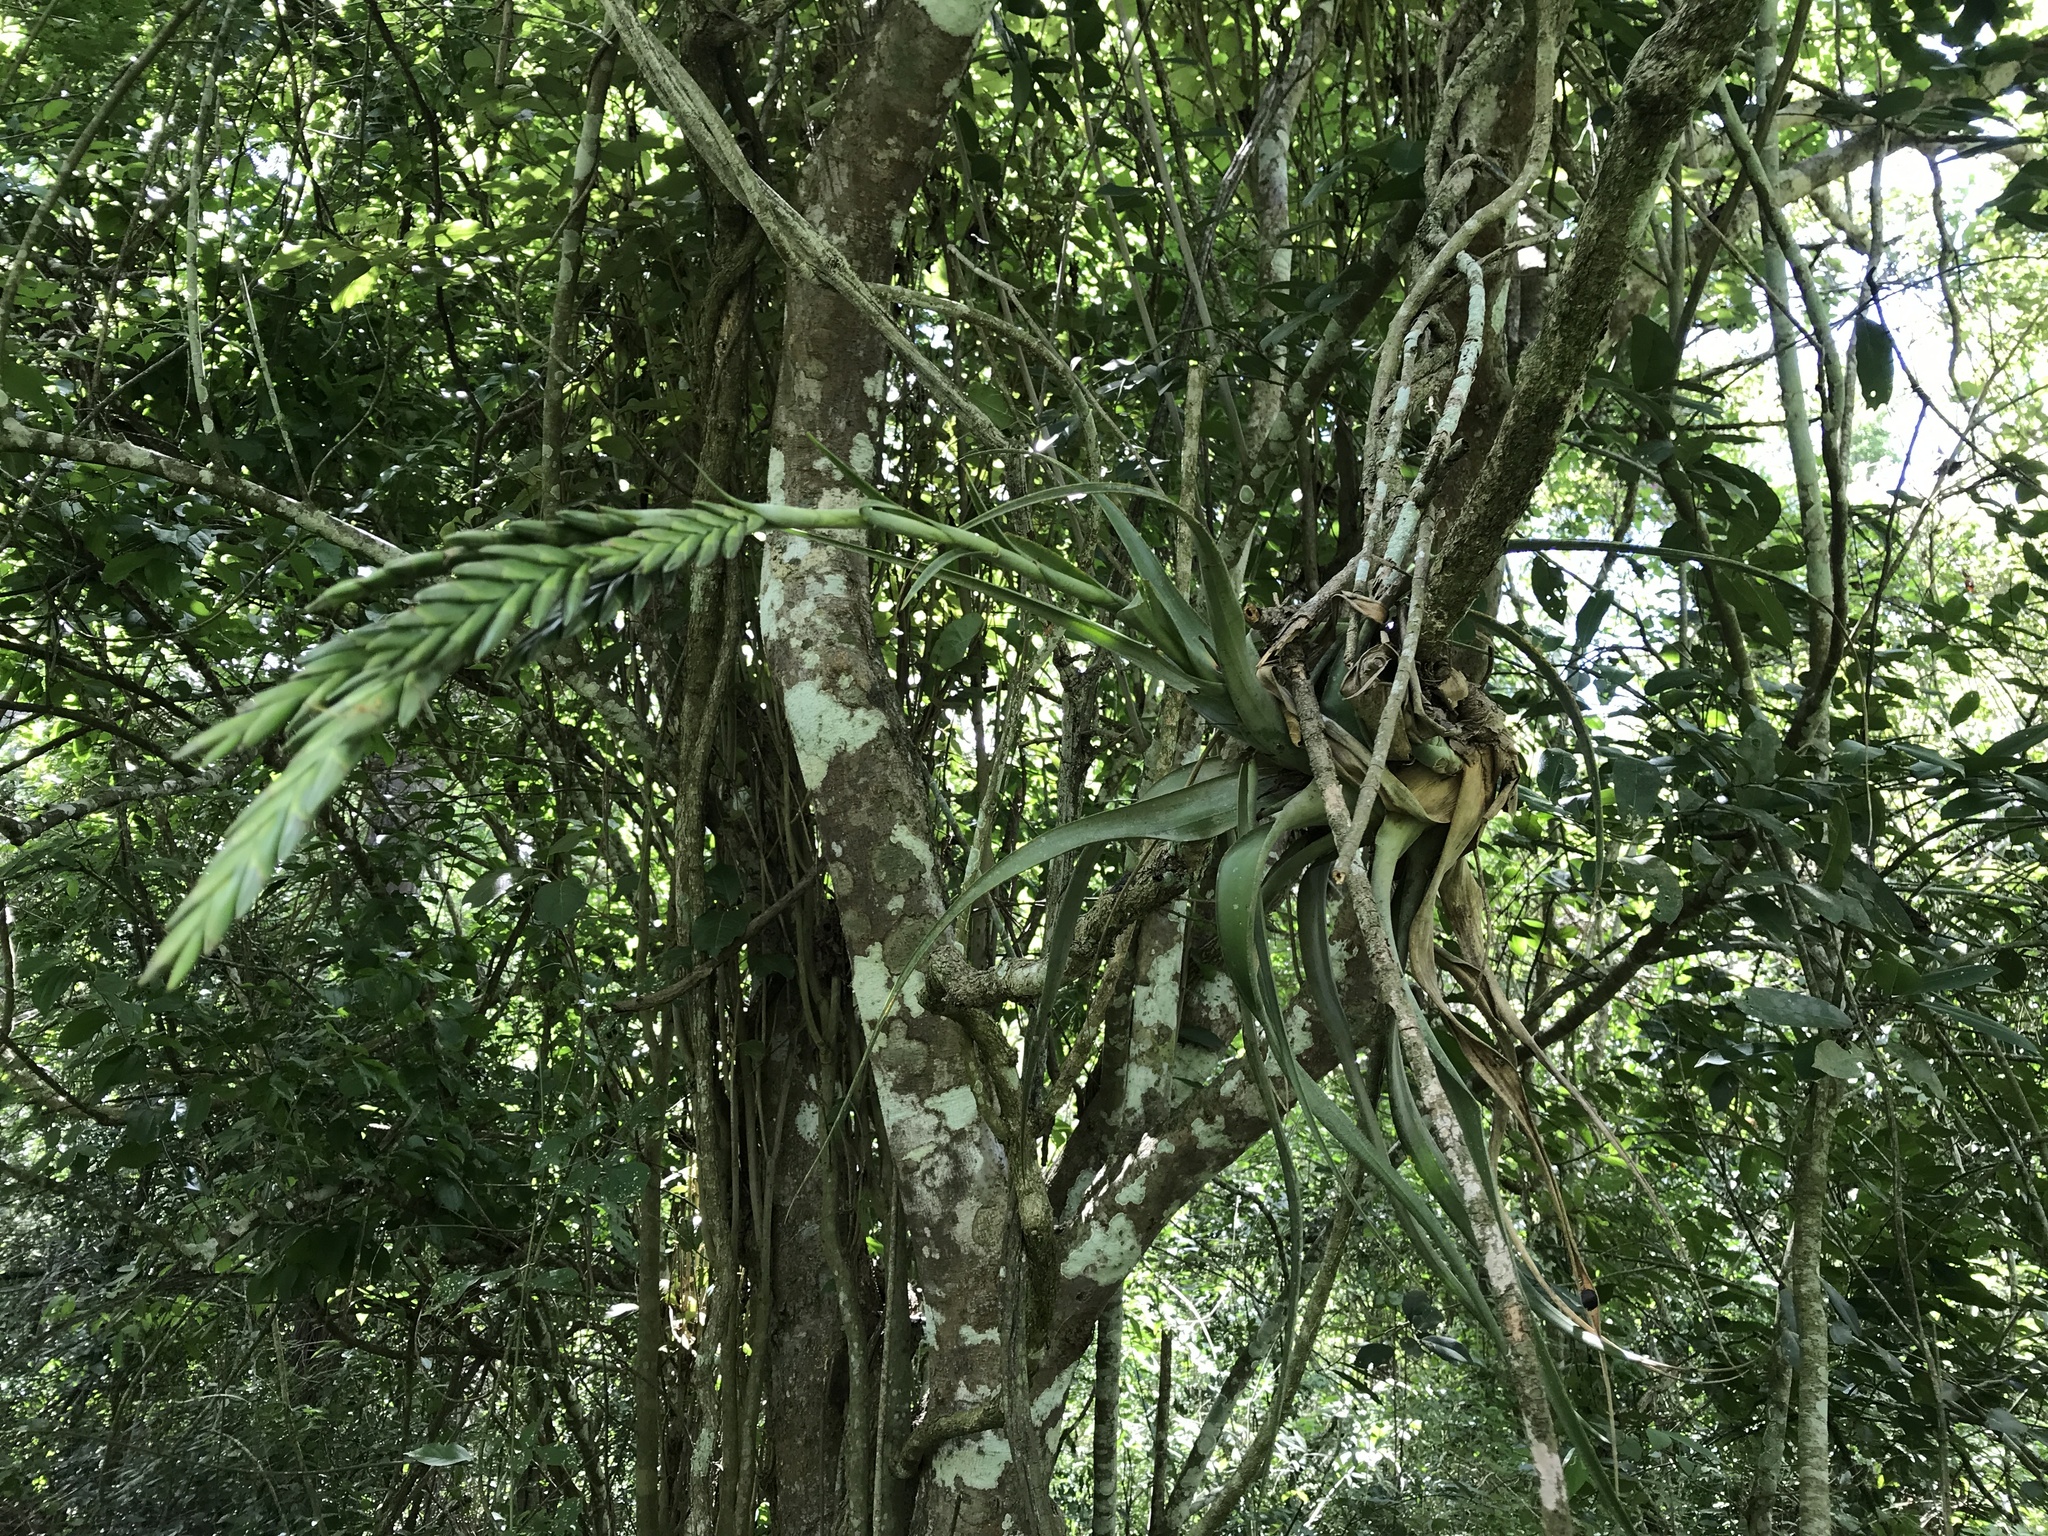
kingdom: Plantae
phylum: Tracheophyta
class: Liliopsida
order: Poales
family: Bromeliaceae
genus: Tillandsia
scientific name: Tillandsia polystachia
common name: Airplant
